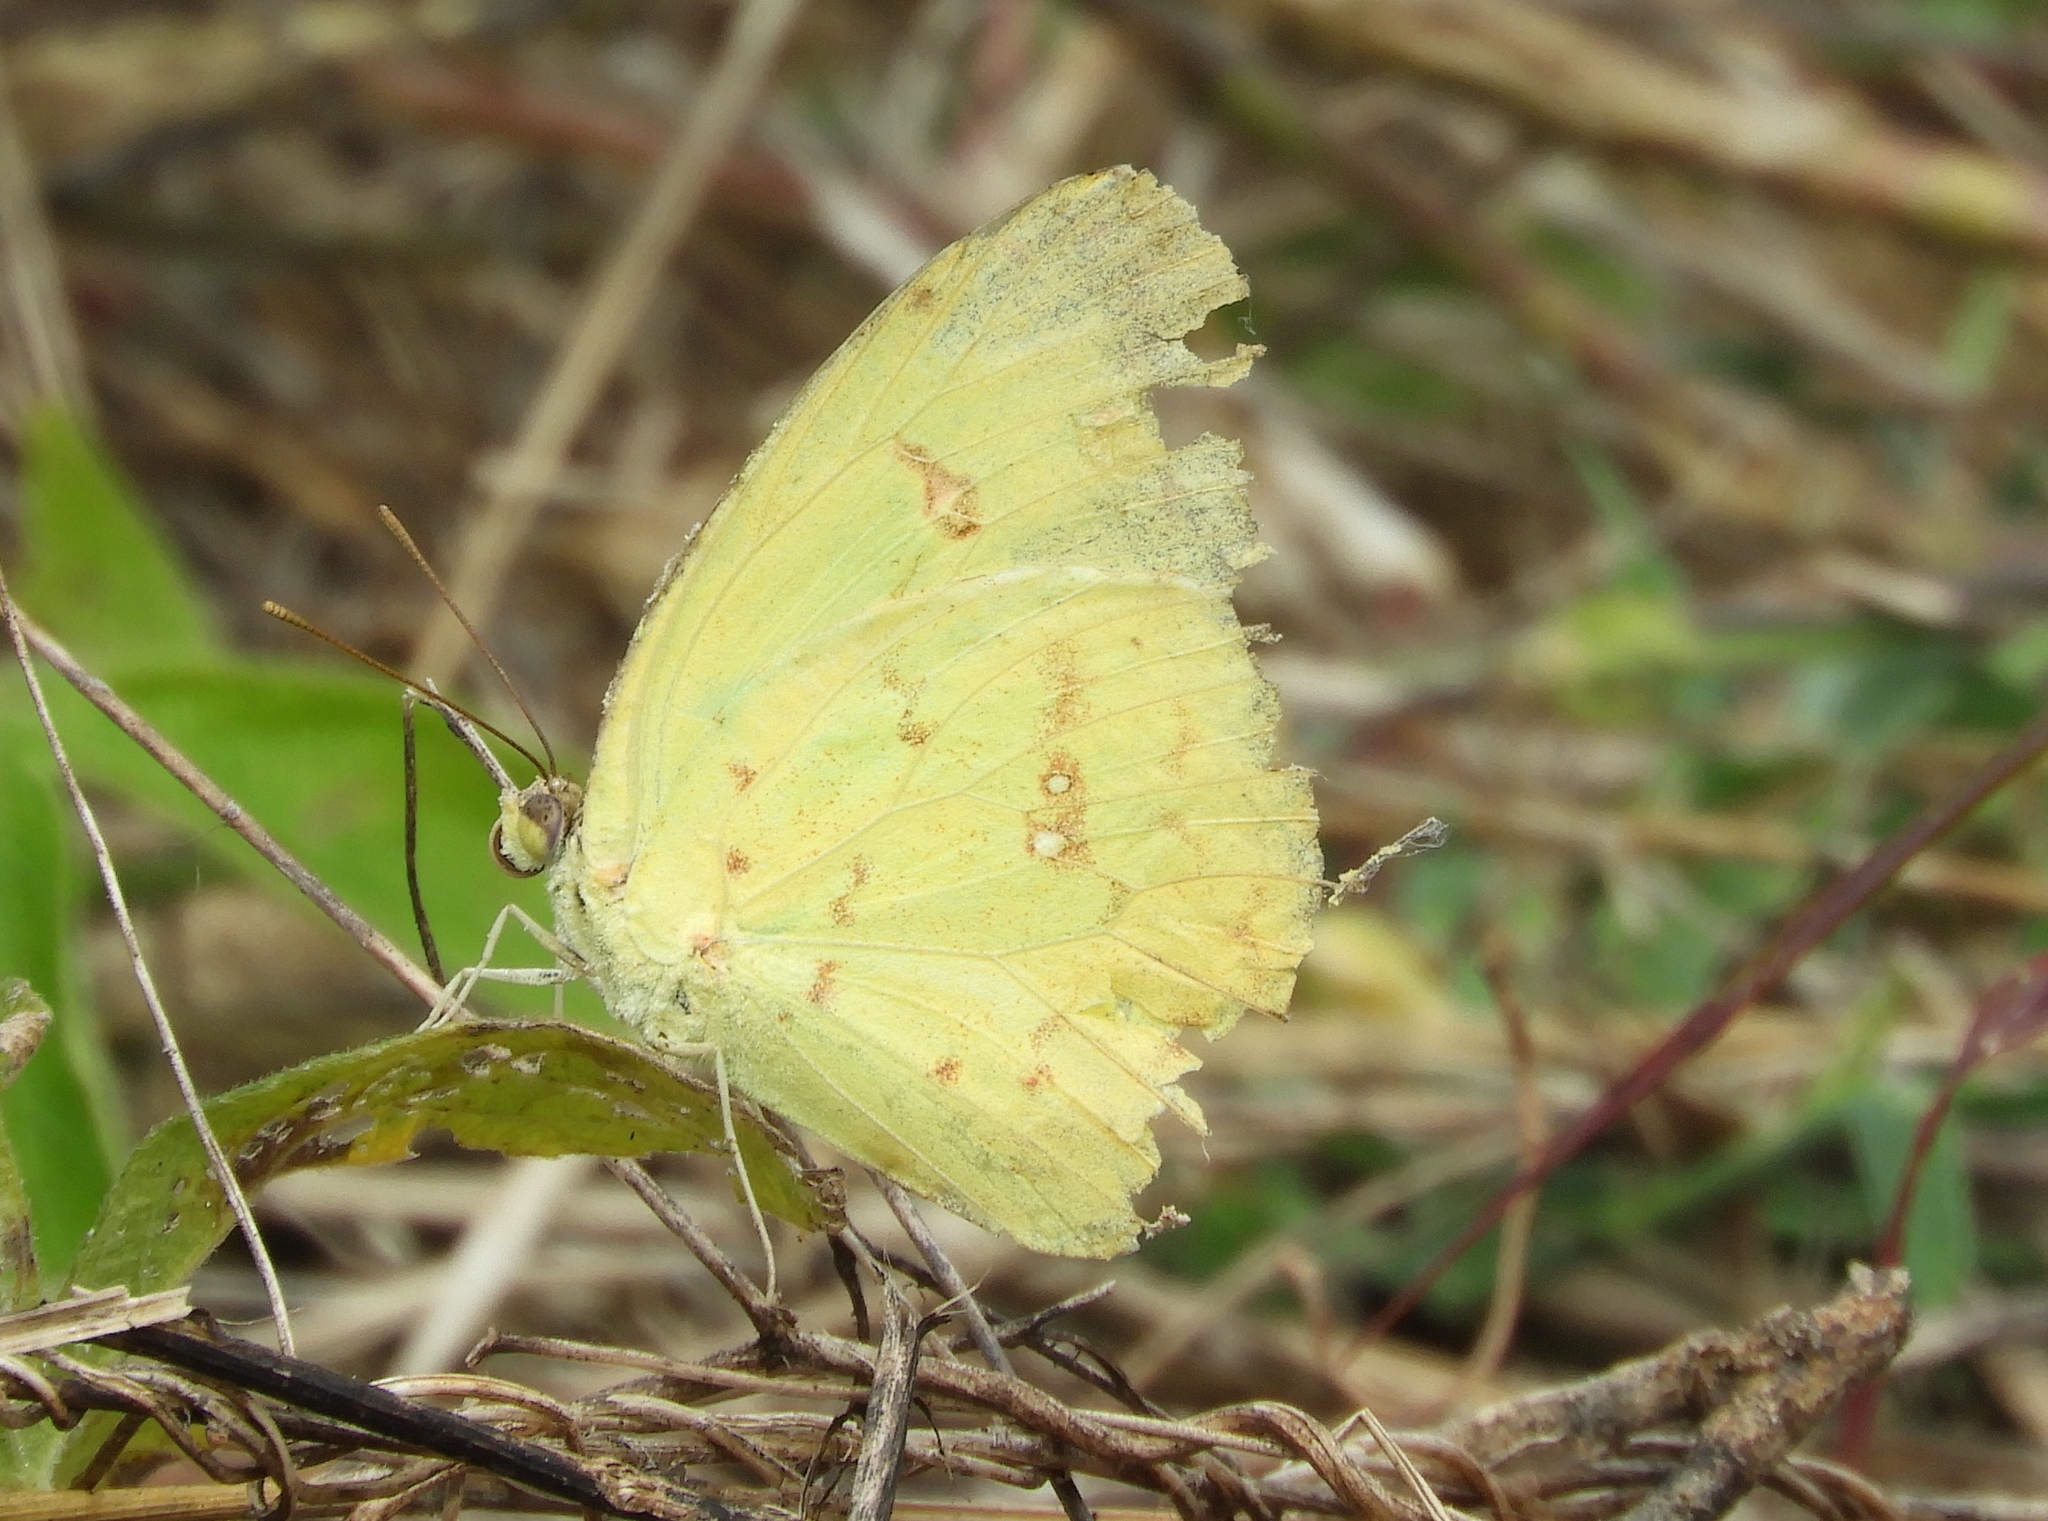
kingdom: Animalia
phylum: Arthropoda
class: Insecta
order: Lepidoptera
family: Pieridae
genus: Phoebis
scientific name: Phoebis marcellina
